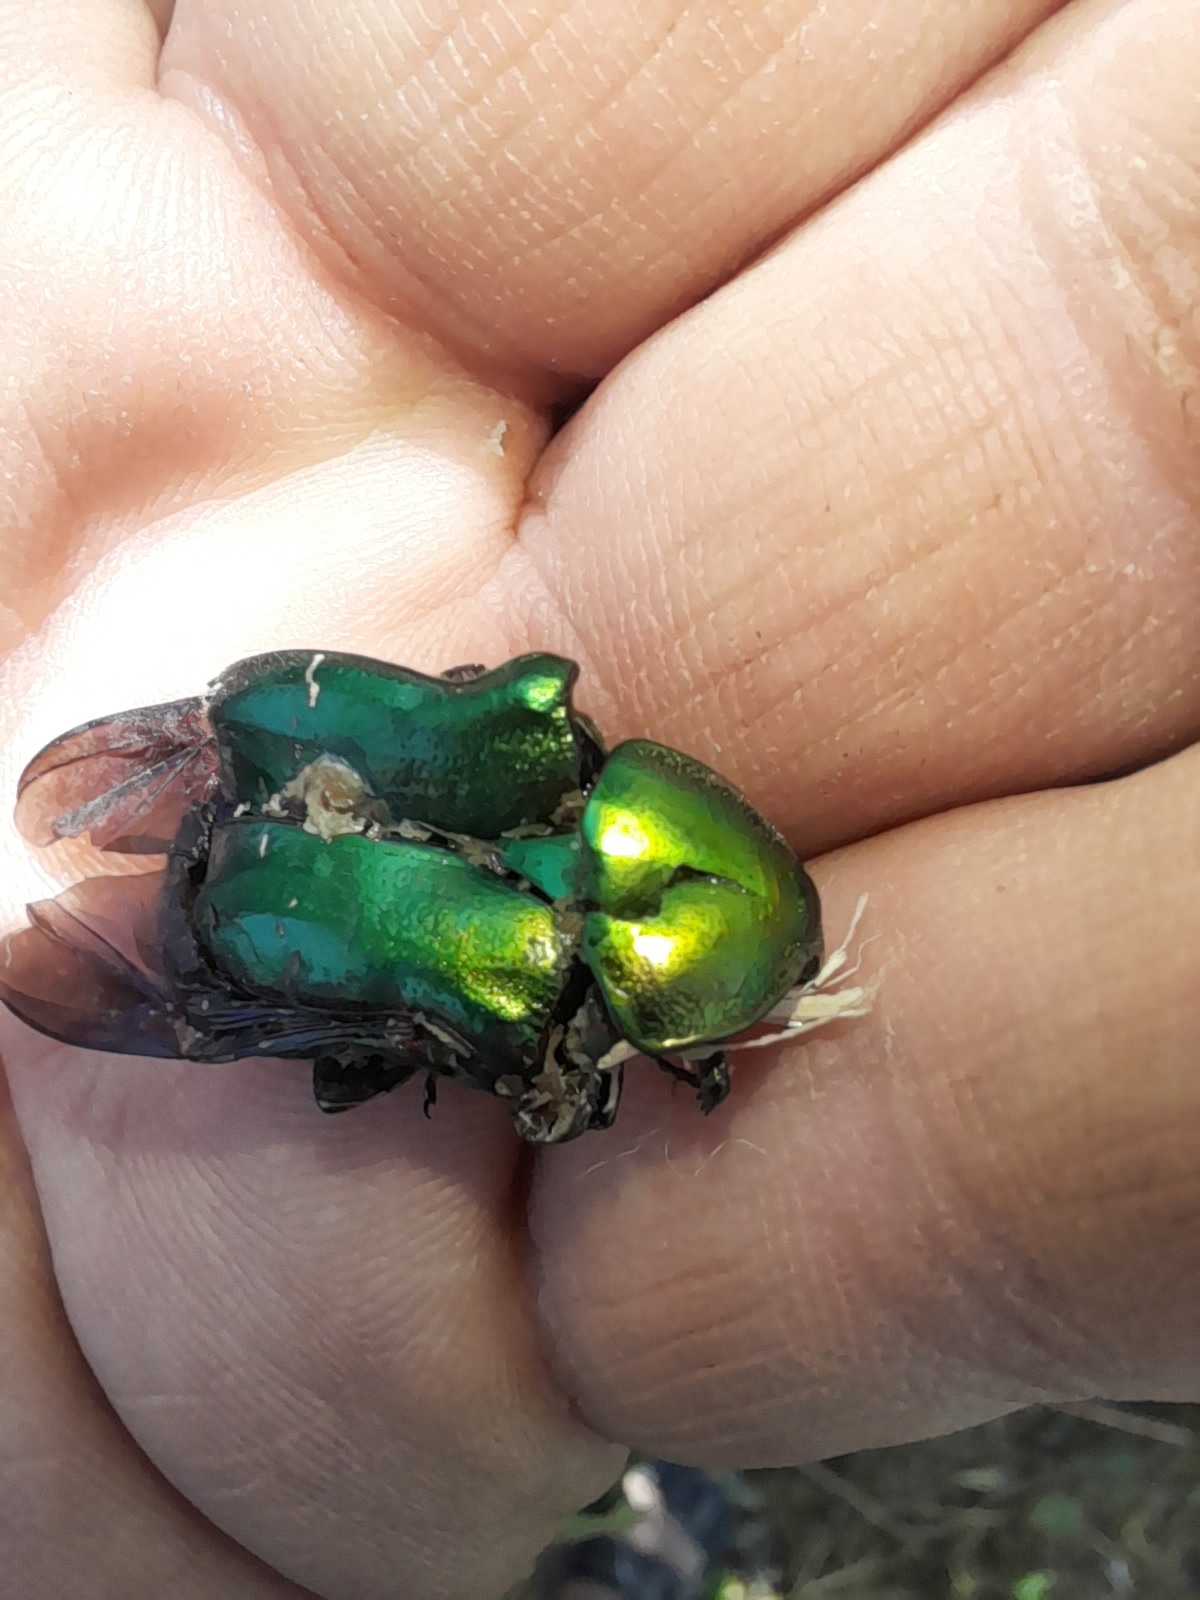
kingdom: Animalia
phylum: Arthropoda
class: Insecta
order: Coleoptera
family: Scarabaeidae
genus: Cetonia
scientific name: Cetonia aurata
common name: Rose chafer
